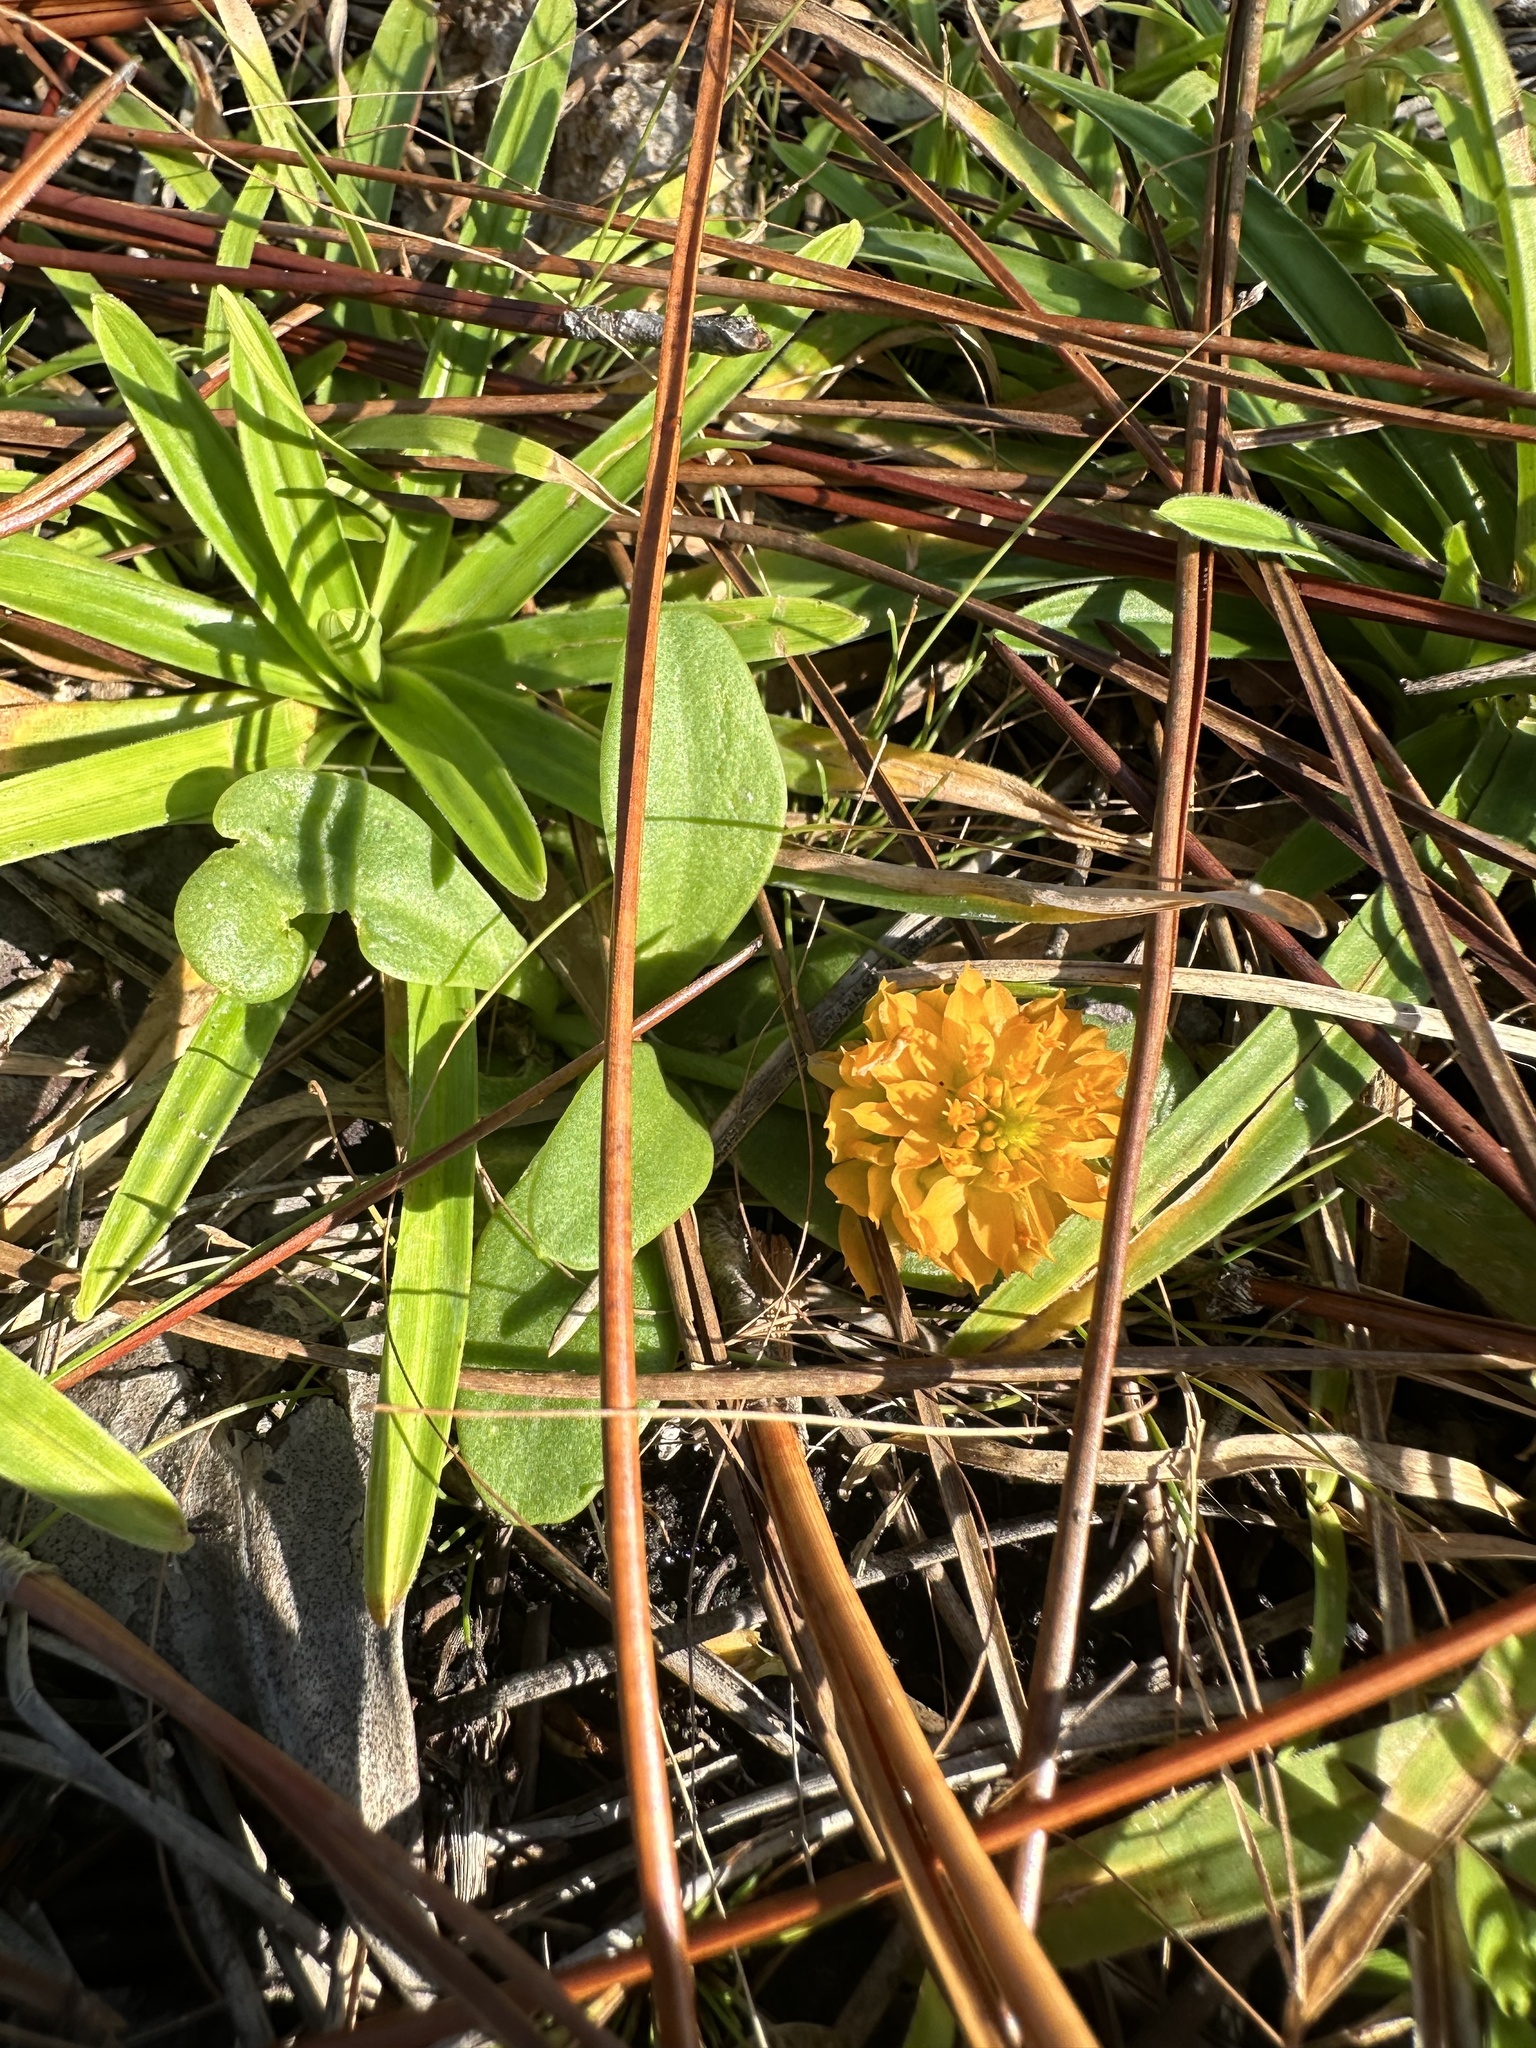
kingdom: Plantae
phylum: Tracheophyta
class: Magnoliopsida
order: Fabales
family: Polygalaceae
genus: Polygala
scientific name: Polygala lutea
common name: Orange milkwort
